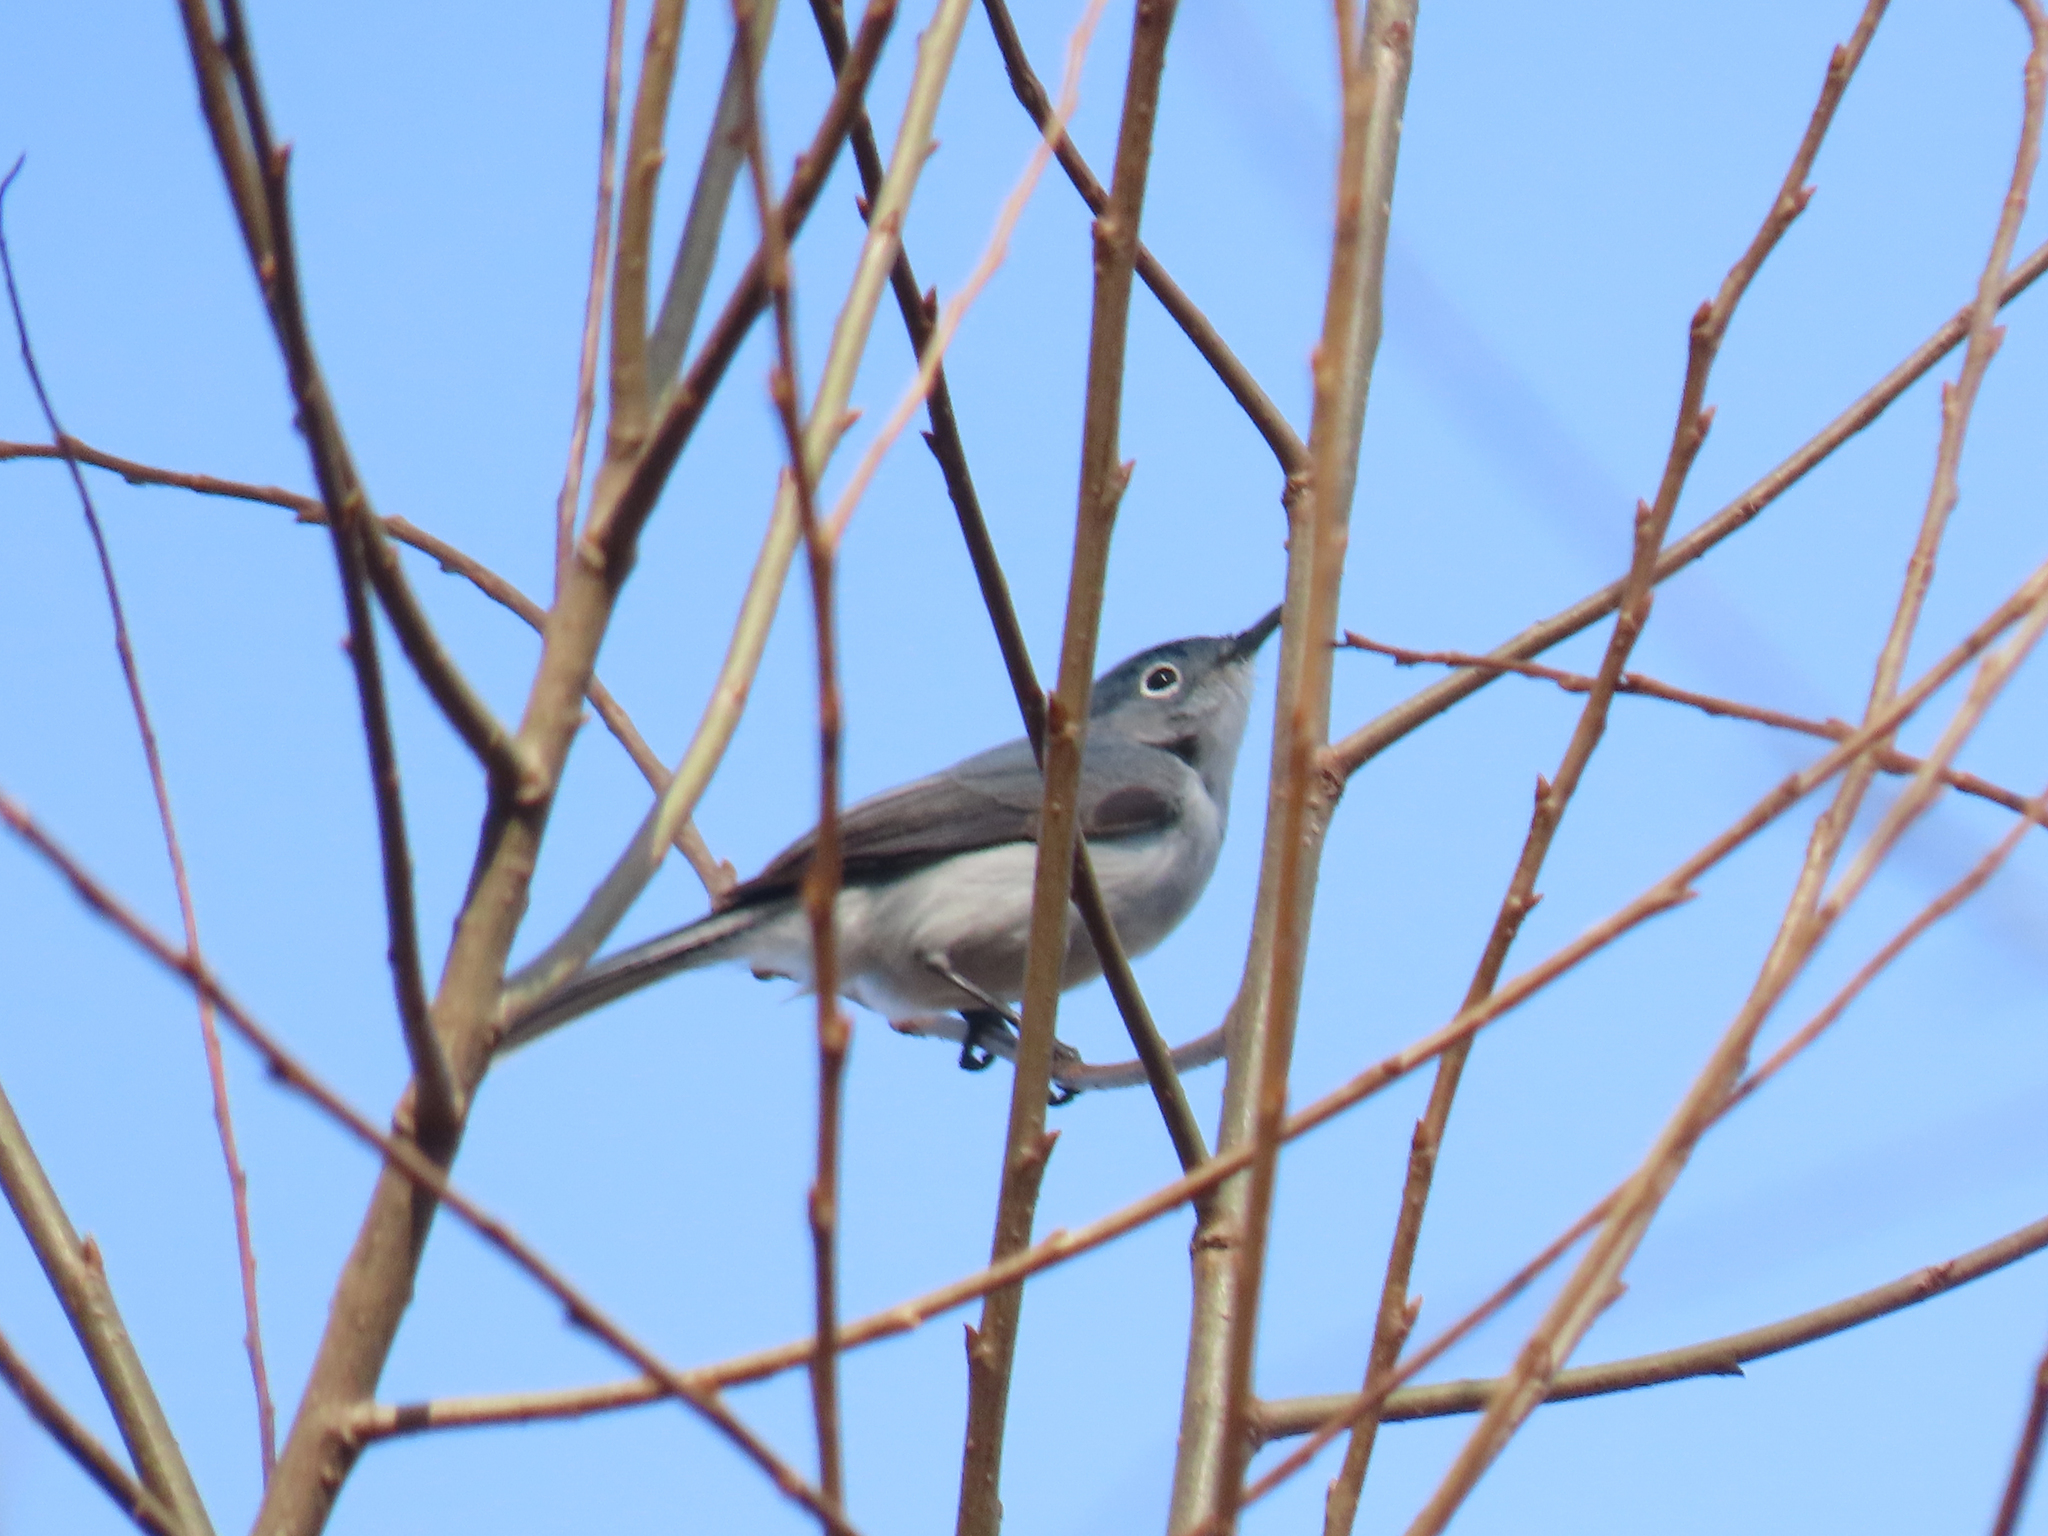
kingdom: Animalia
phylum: Chordata
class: Aves
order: Passeriformes
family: Polioptilidae
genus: Polioptila
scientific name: Polioptila caerulea
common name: Blue-gray gnatcatcher
